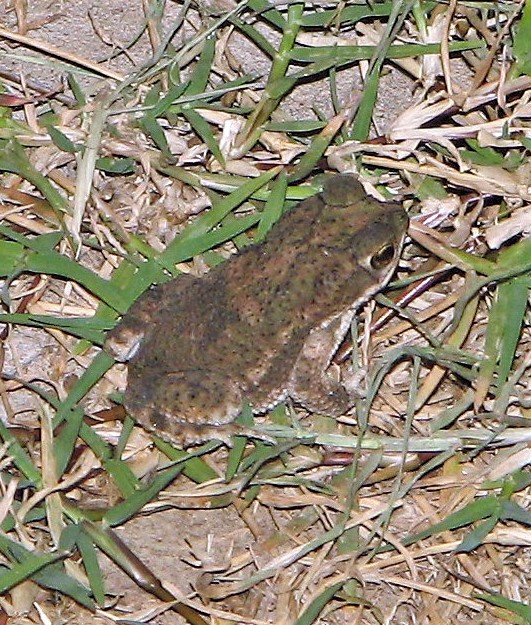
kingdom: Animalia
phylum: Chordata
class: Amphibia
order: Anura
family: Bufonidae
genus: Rhinella
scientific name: Rhinella major
